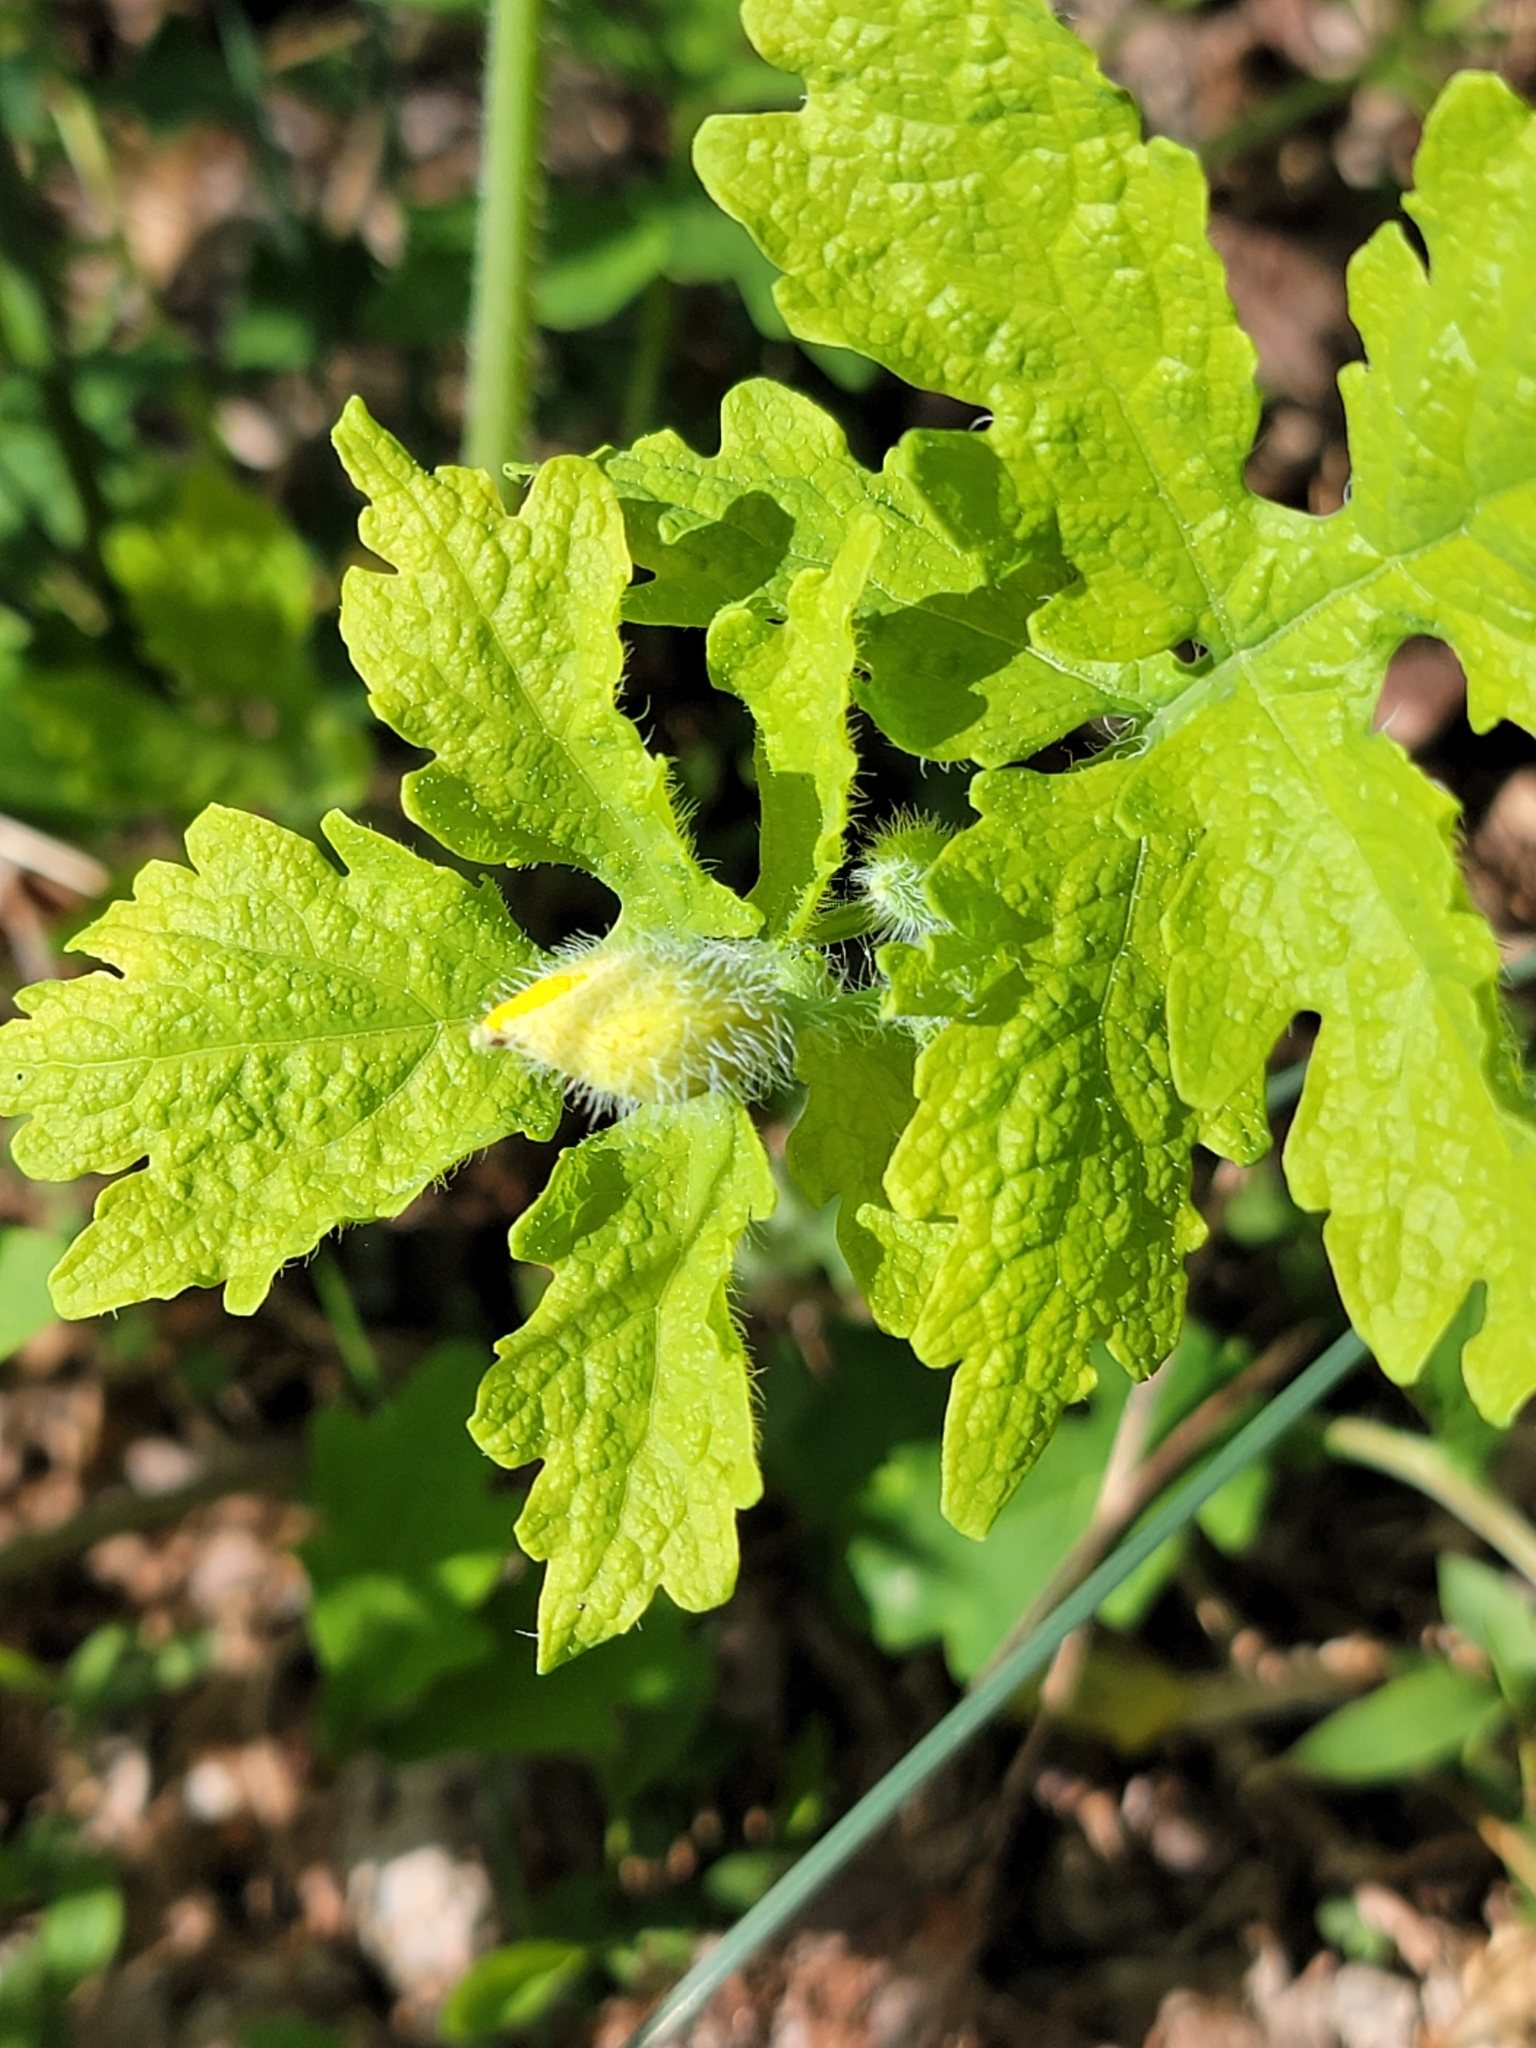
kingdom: Plantae
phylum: Tracheophyta
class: Magnoliopsida
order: Ranunculales
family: Papaveraceae
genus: Stylophorum
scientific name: Stylophorum diphyllum
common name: Celandine poppy
